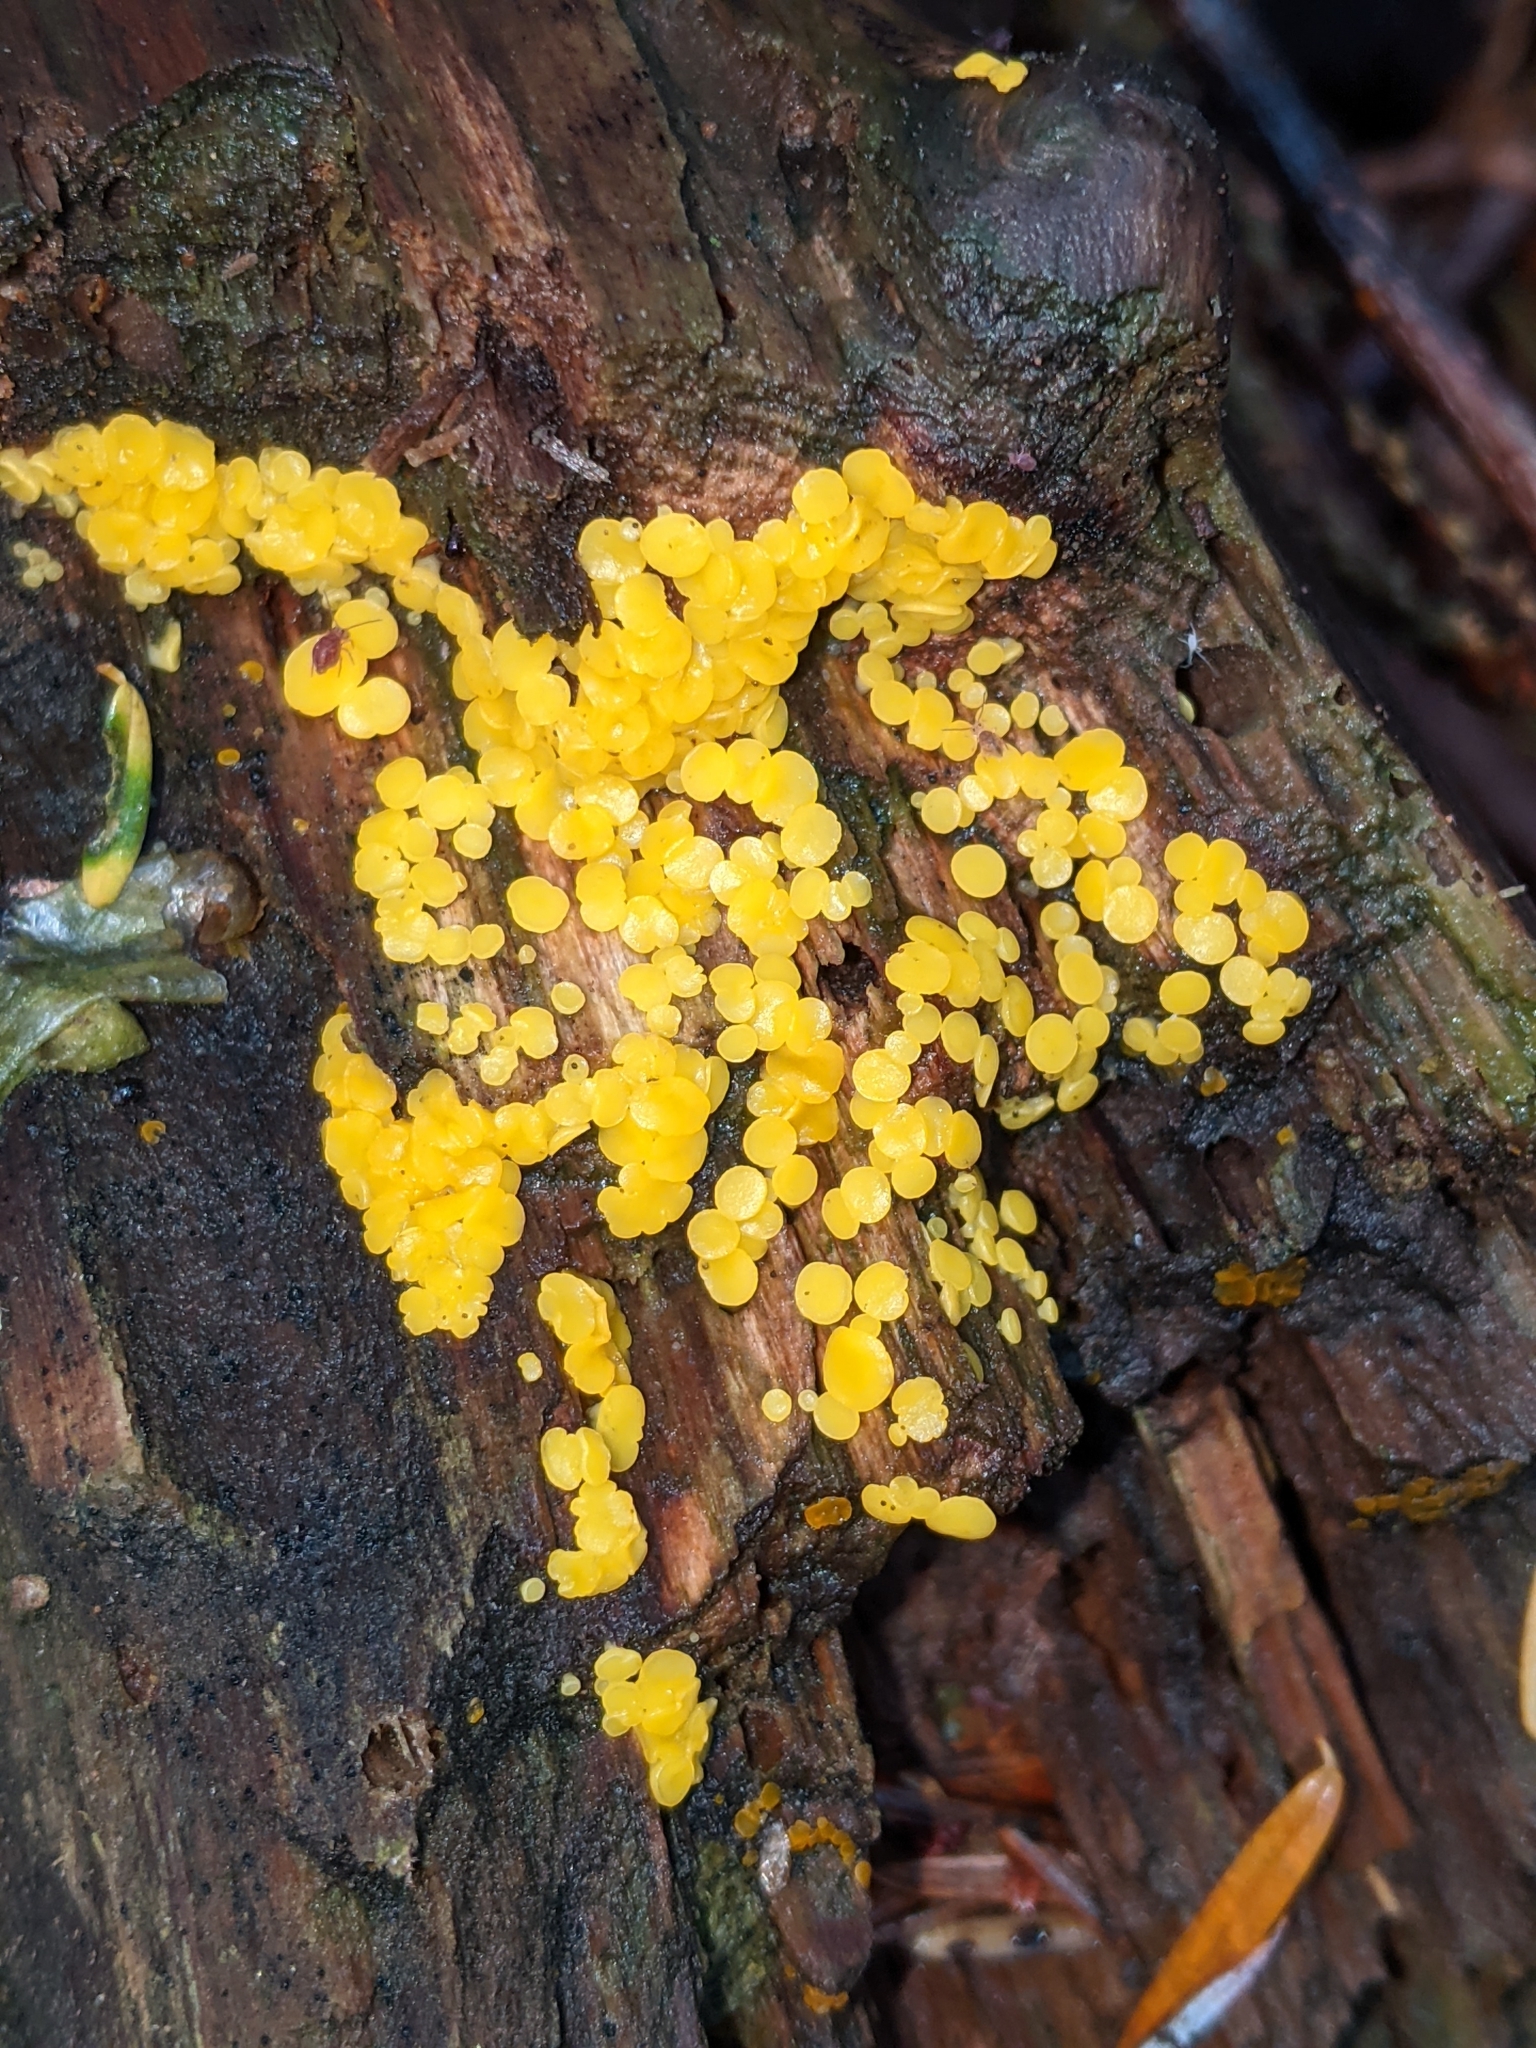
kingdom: Fungi
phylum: Ascomycota
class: Leotiomycetes
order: Helotiales
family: Pezizellaceae
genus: Calycina
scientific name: Calycina citrina
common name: Yellow fairy cups
